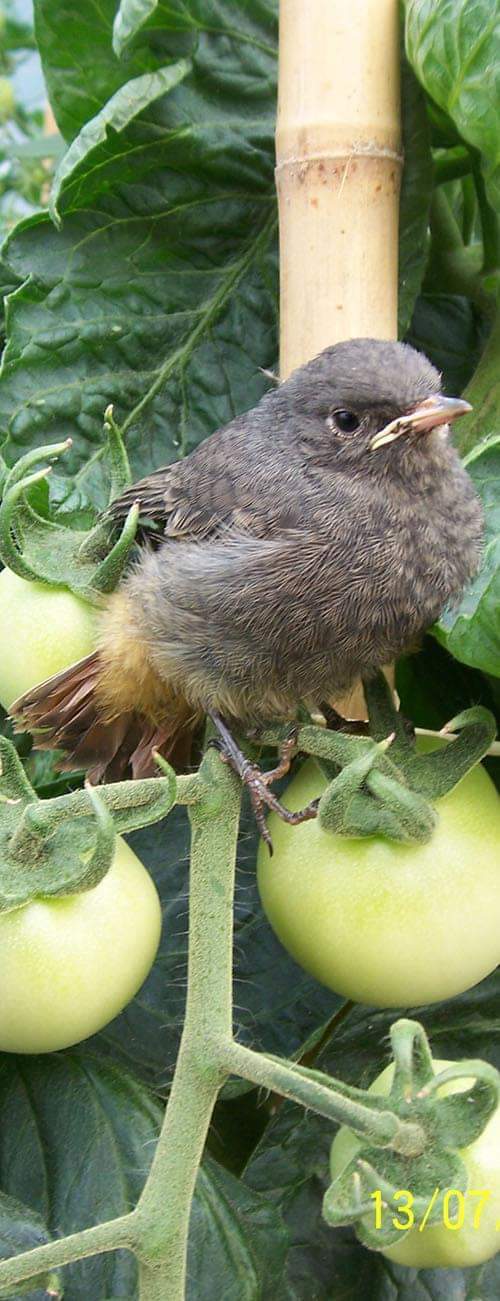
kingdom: Animalia
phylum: Chordata
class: Aves
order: Passeriformes
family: Muscicapidae
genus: Phoenicurus
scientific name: Phoenicurus ochruros
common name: Black redstart
